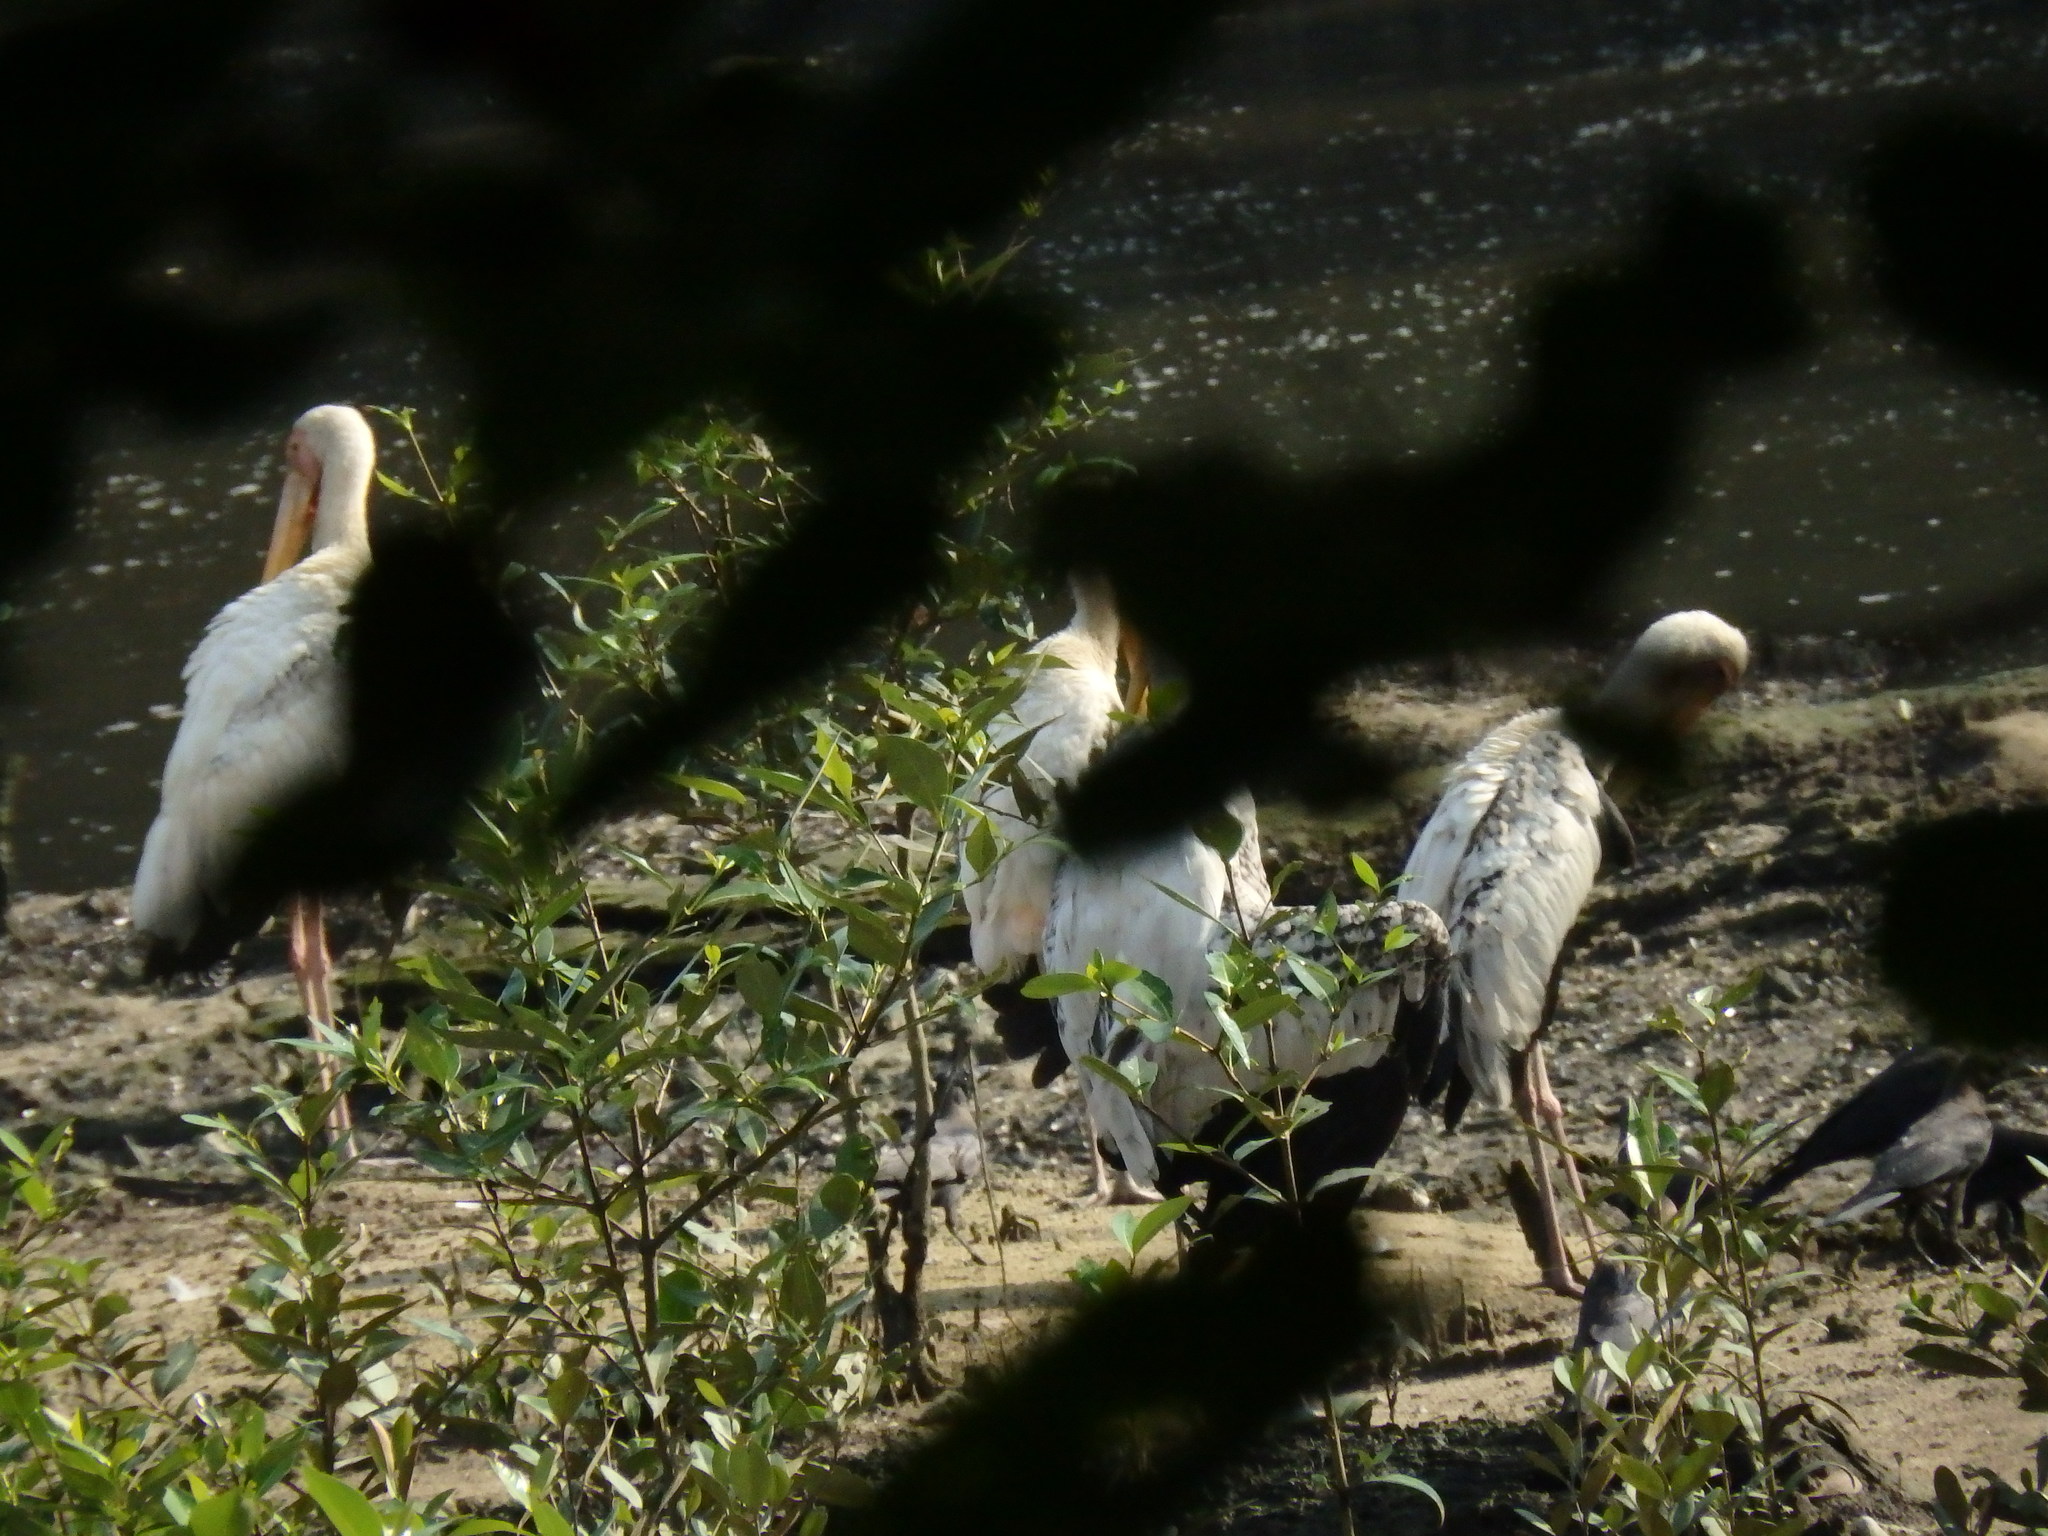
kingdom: Animalia
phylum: Chordata
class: Aves
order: Ciconiiformes
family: Ciconiidae
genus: Mycteria
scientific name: Mycteria
